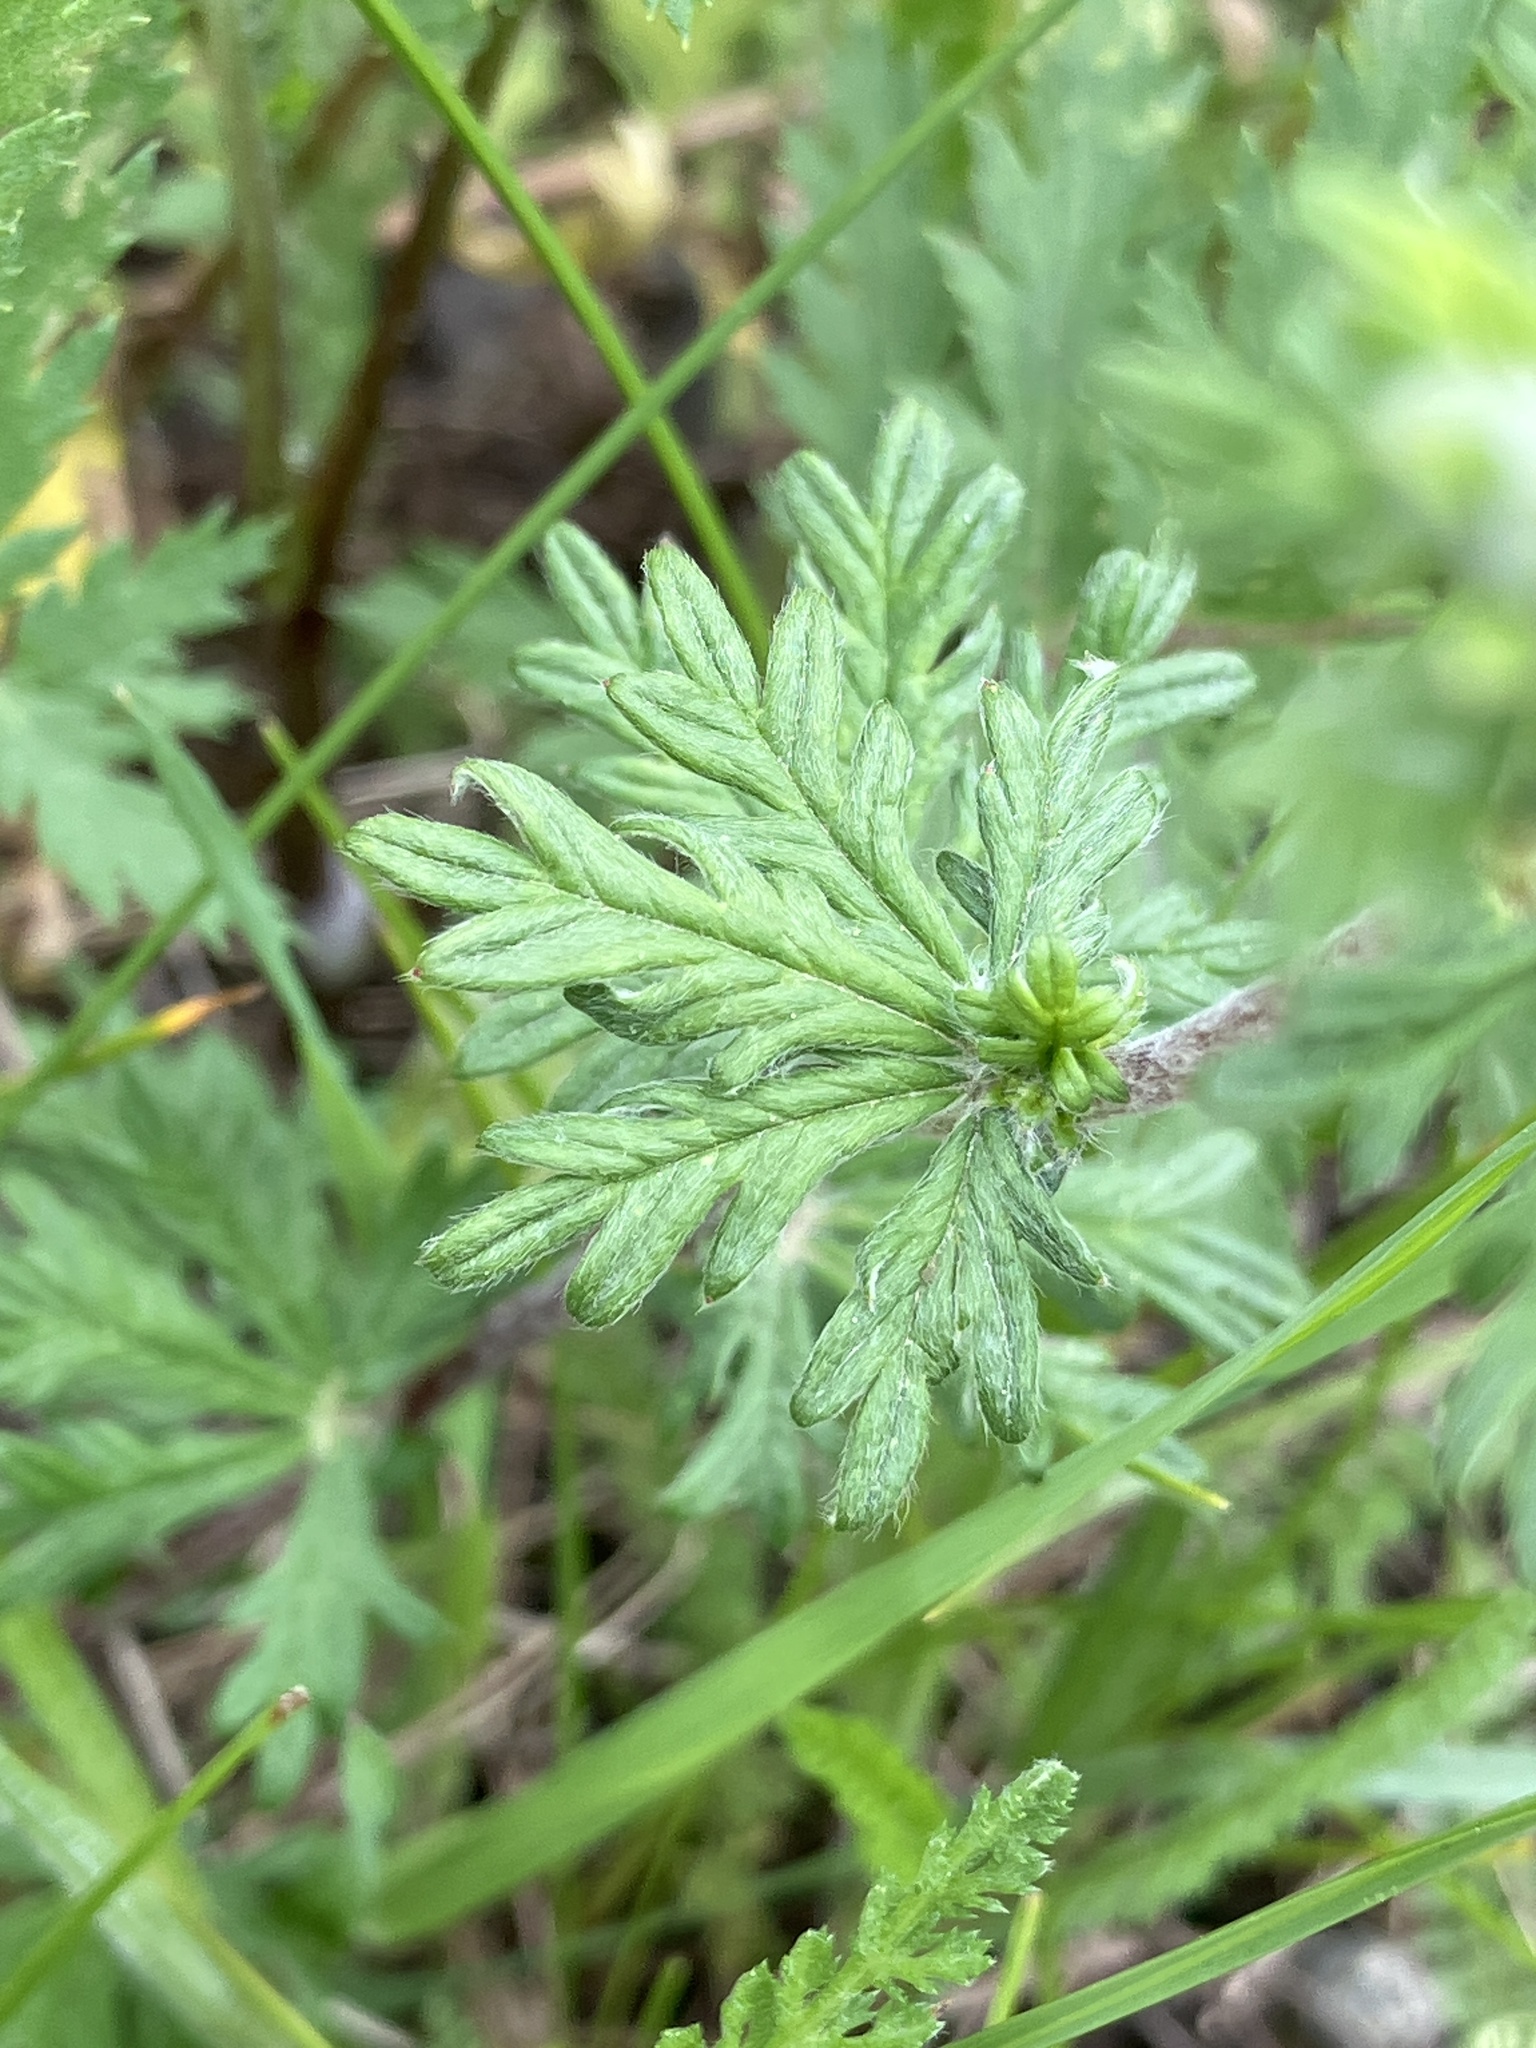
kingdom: Plantae
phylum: Tracheophyta
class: Magnoliopsida
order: Rosales
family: Rosaceae
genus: Potentilla
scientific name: Potentilla argentea
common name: Hoary cinquefoil
